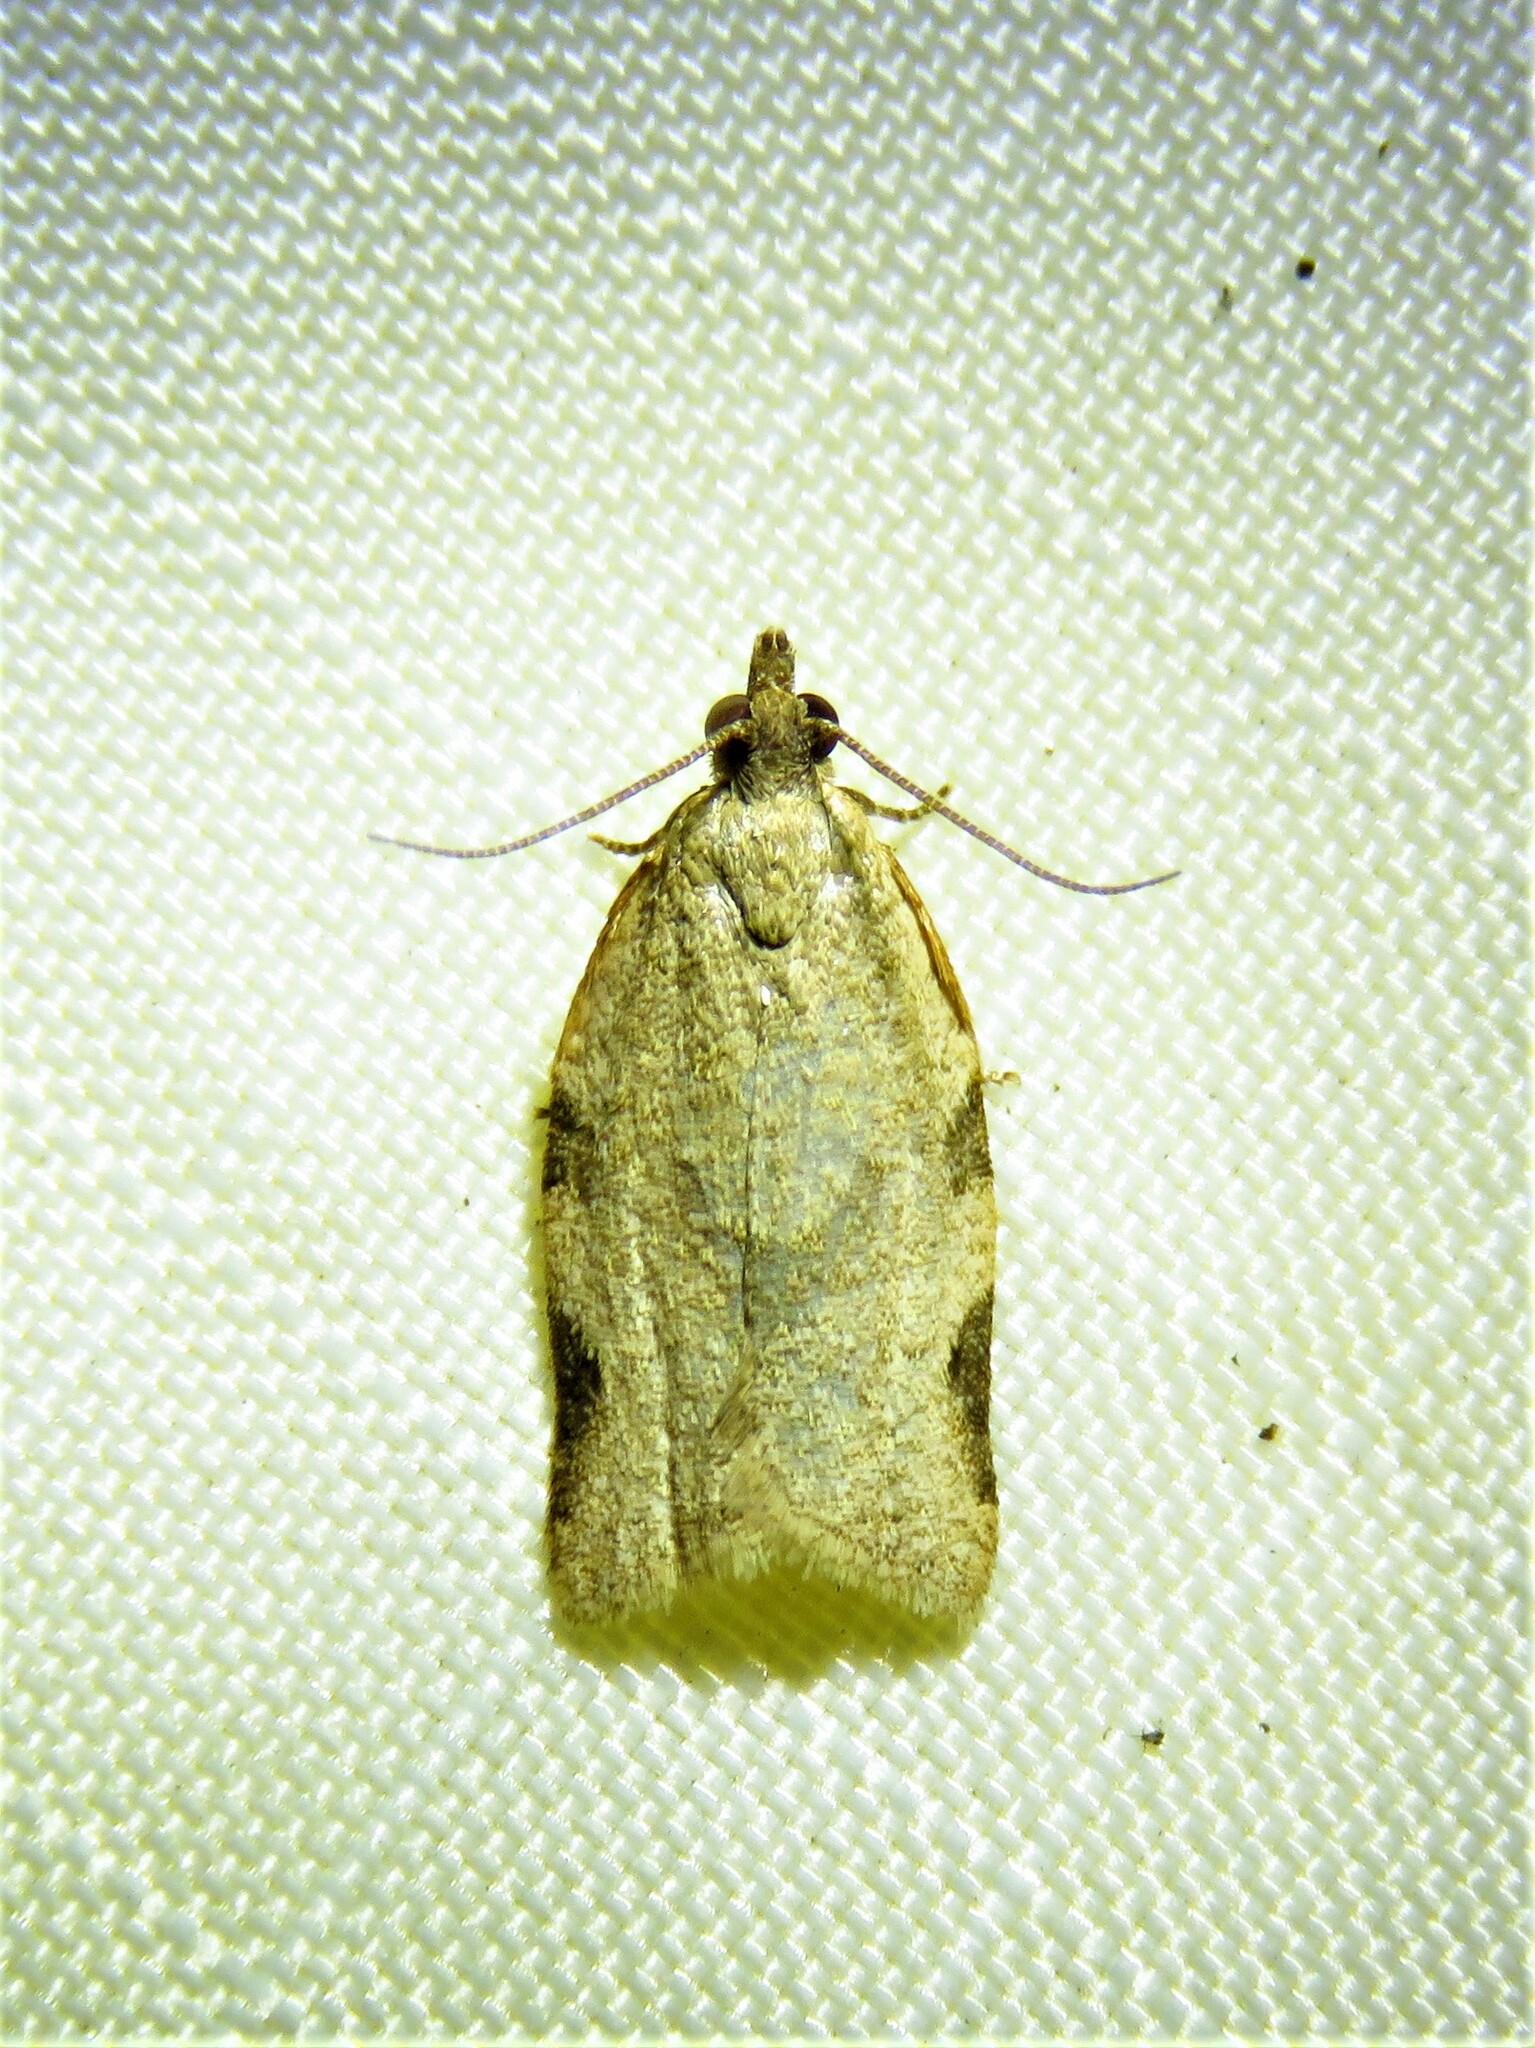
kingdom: Animalia
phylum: Arthropoda
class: Insecta
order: Lepidoptera
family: Tortricidae
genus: Clepsis
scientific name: Clepsis virescana
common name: Greenish apple moth
